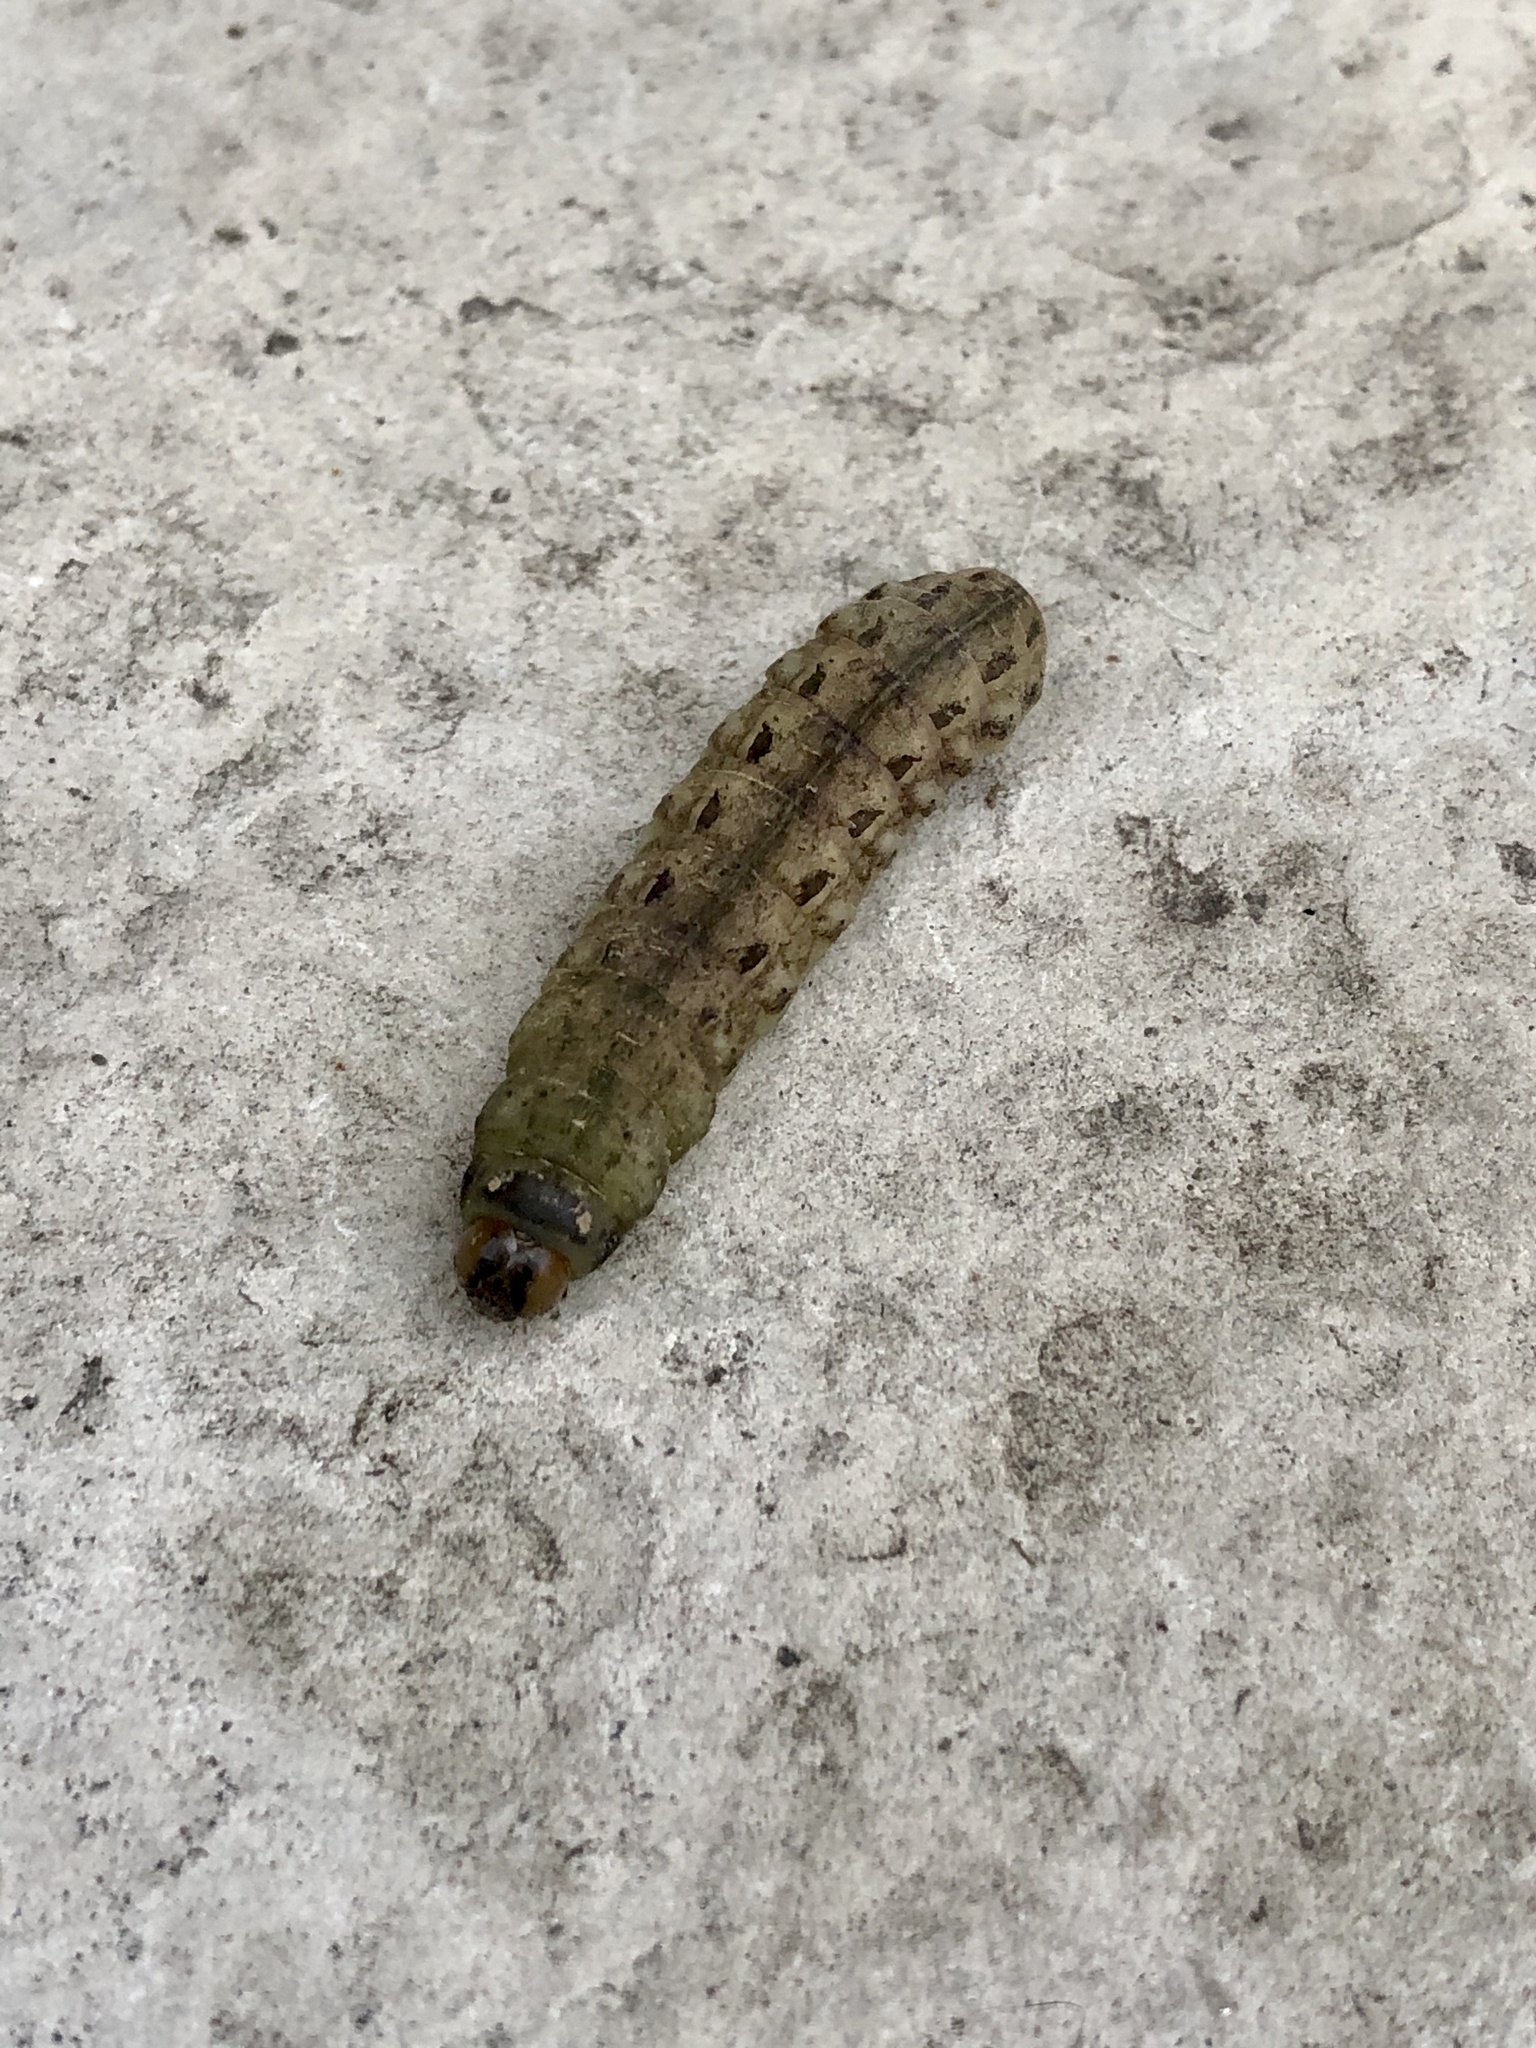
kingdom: Animalia
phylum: Arthropoda
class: Insecta
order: Lepidoptera
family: Noctuidae
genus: Noctua
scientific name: Noctua pronuba
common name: Large yellow underwing
